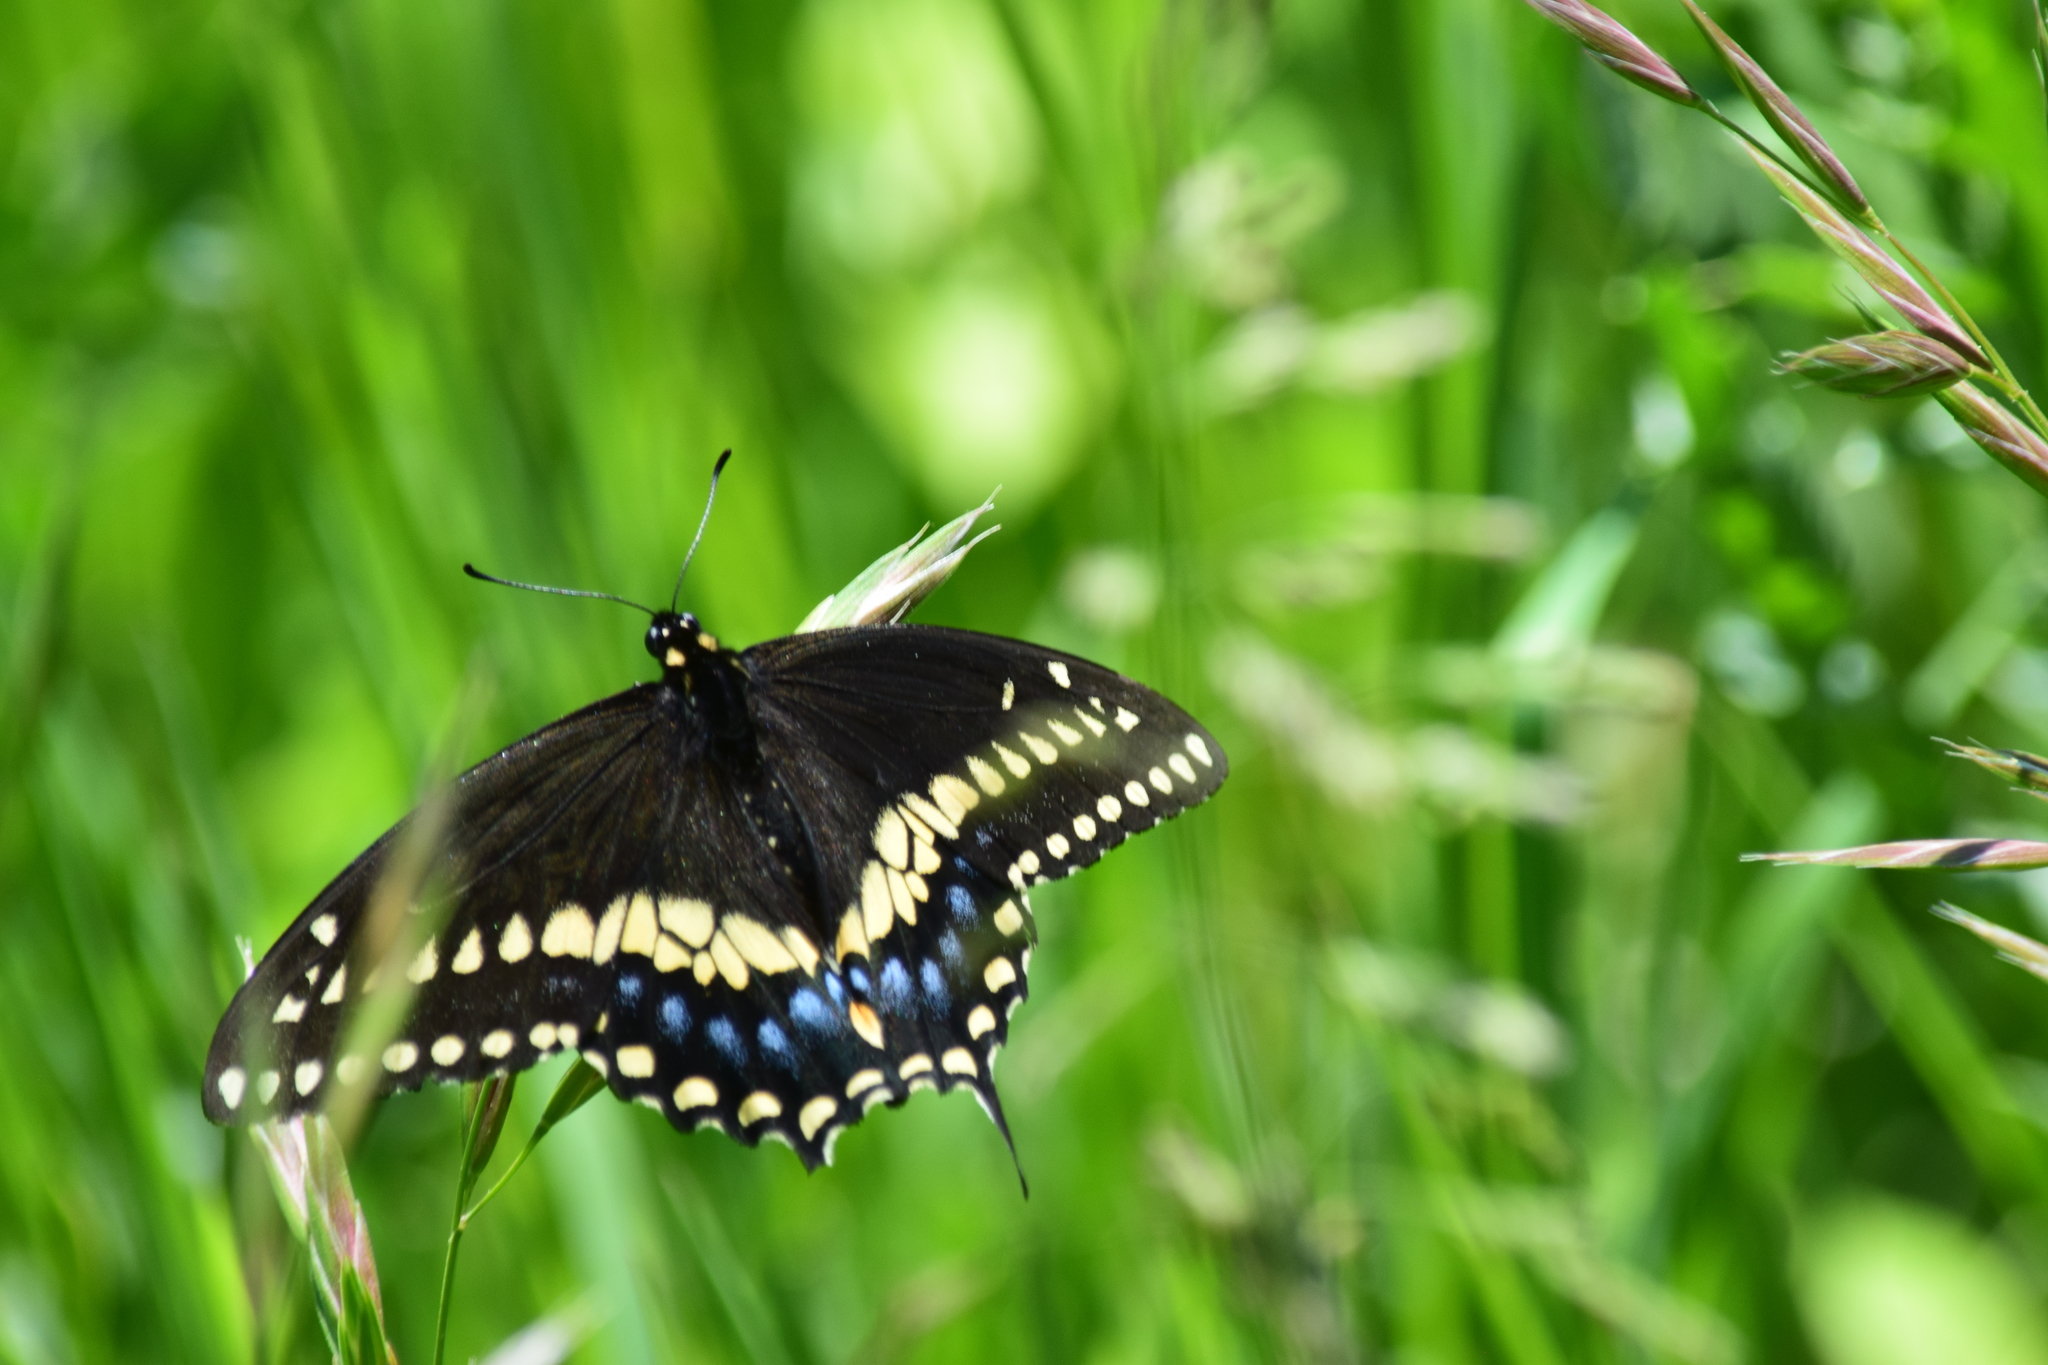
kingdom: Animalia
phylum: Arthropoda
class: Insecta
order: Lepidoptera
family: Papilionidae
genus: Papilio
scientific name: Papilio polyxenes
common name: Black swallowtail
